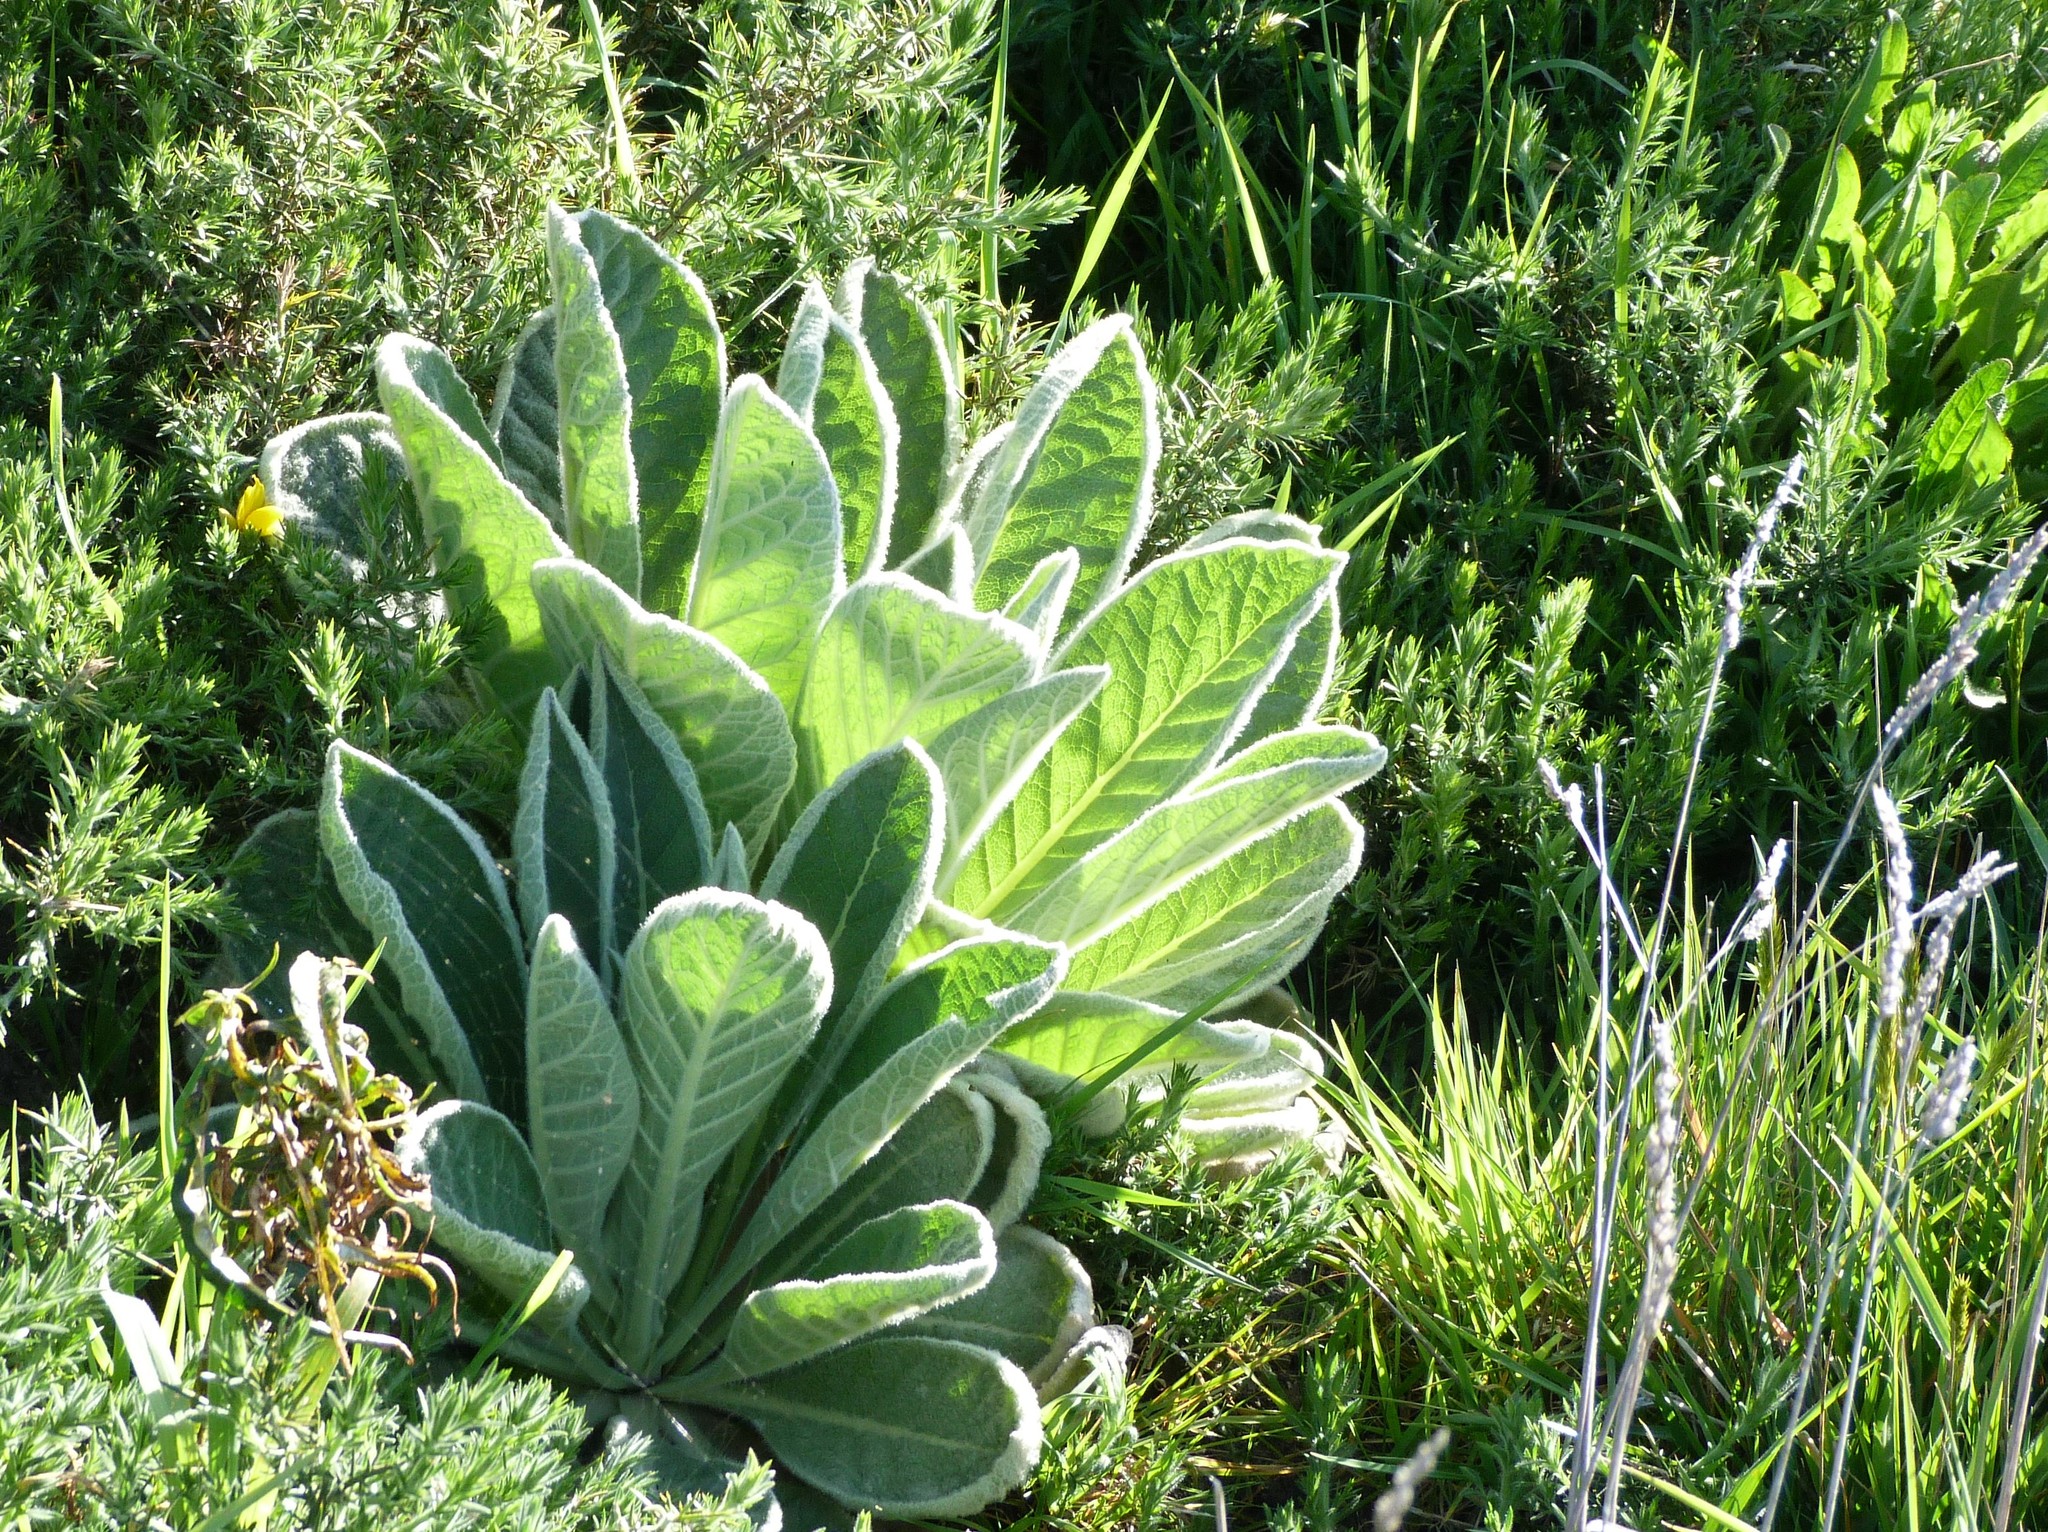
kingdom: Plantae
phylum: Tracheophyta
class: Magnoliopsida
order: Lamiales
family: Scrophulariaceae
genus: Verbascum
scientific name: Verbascum thapsus
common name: Common mullein
